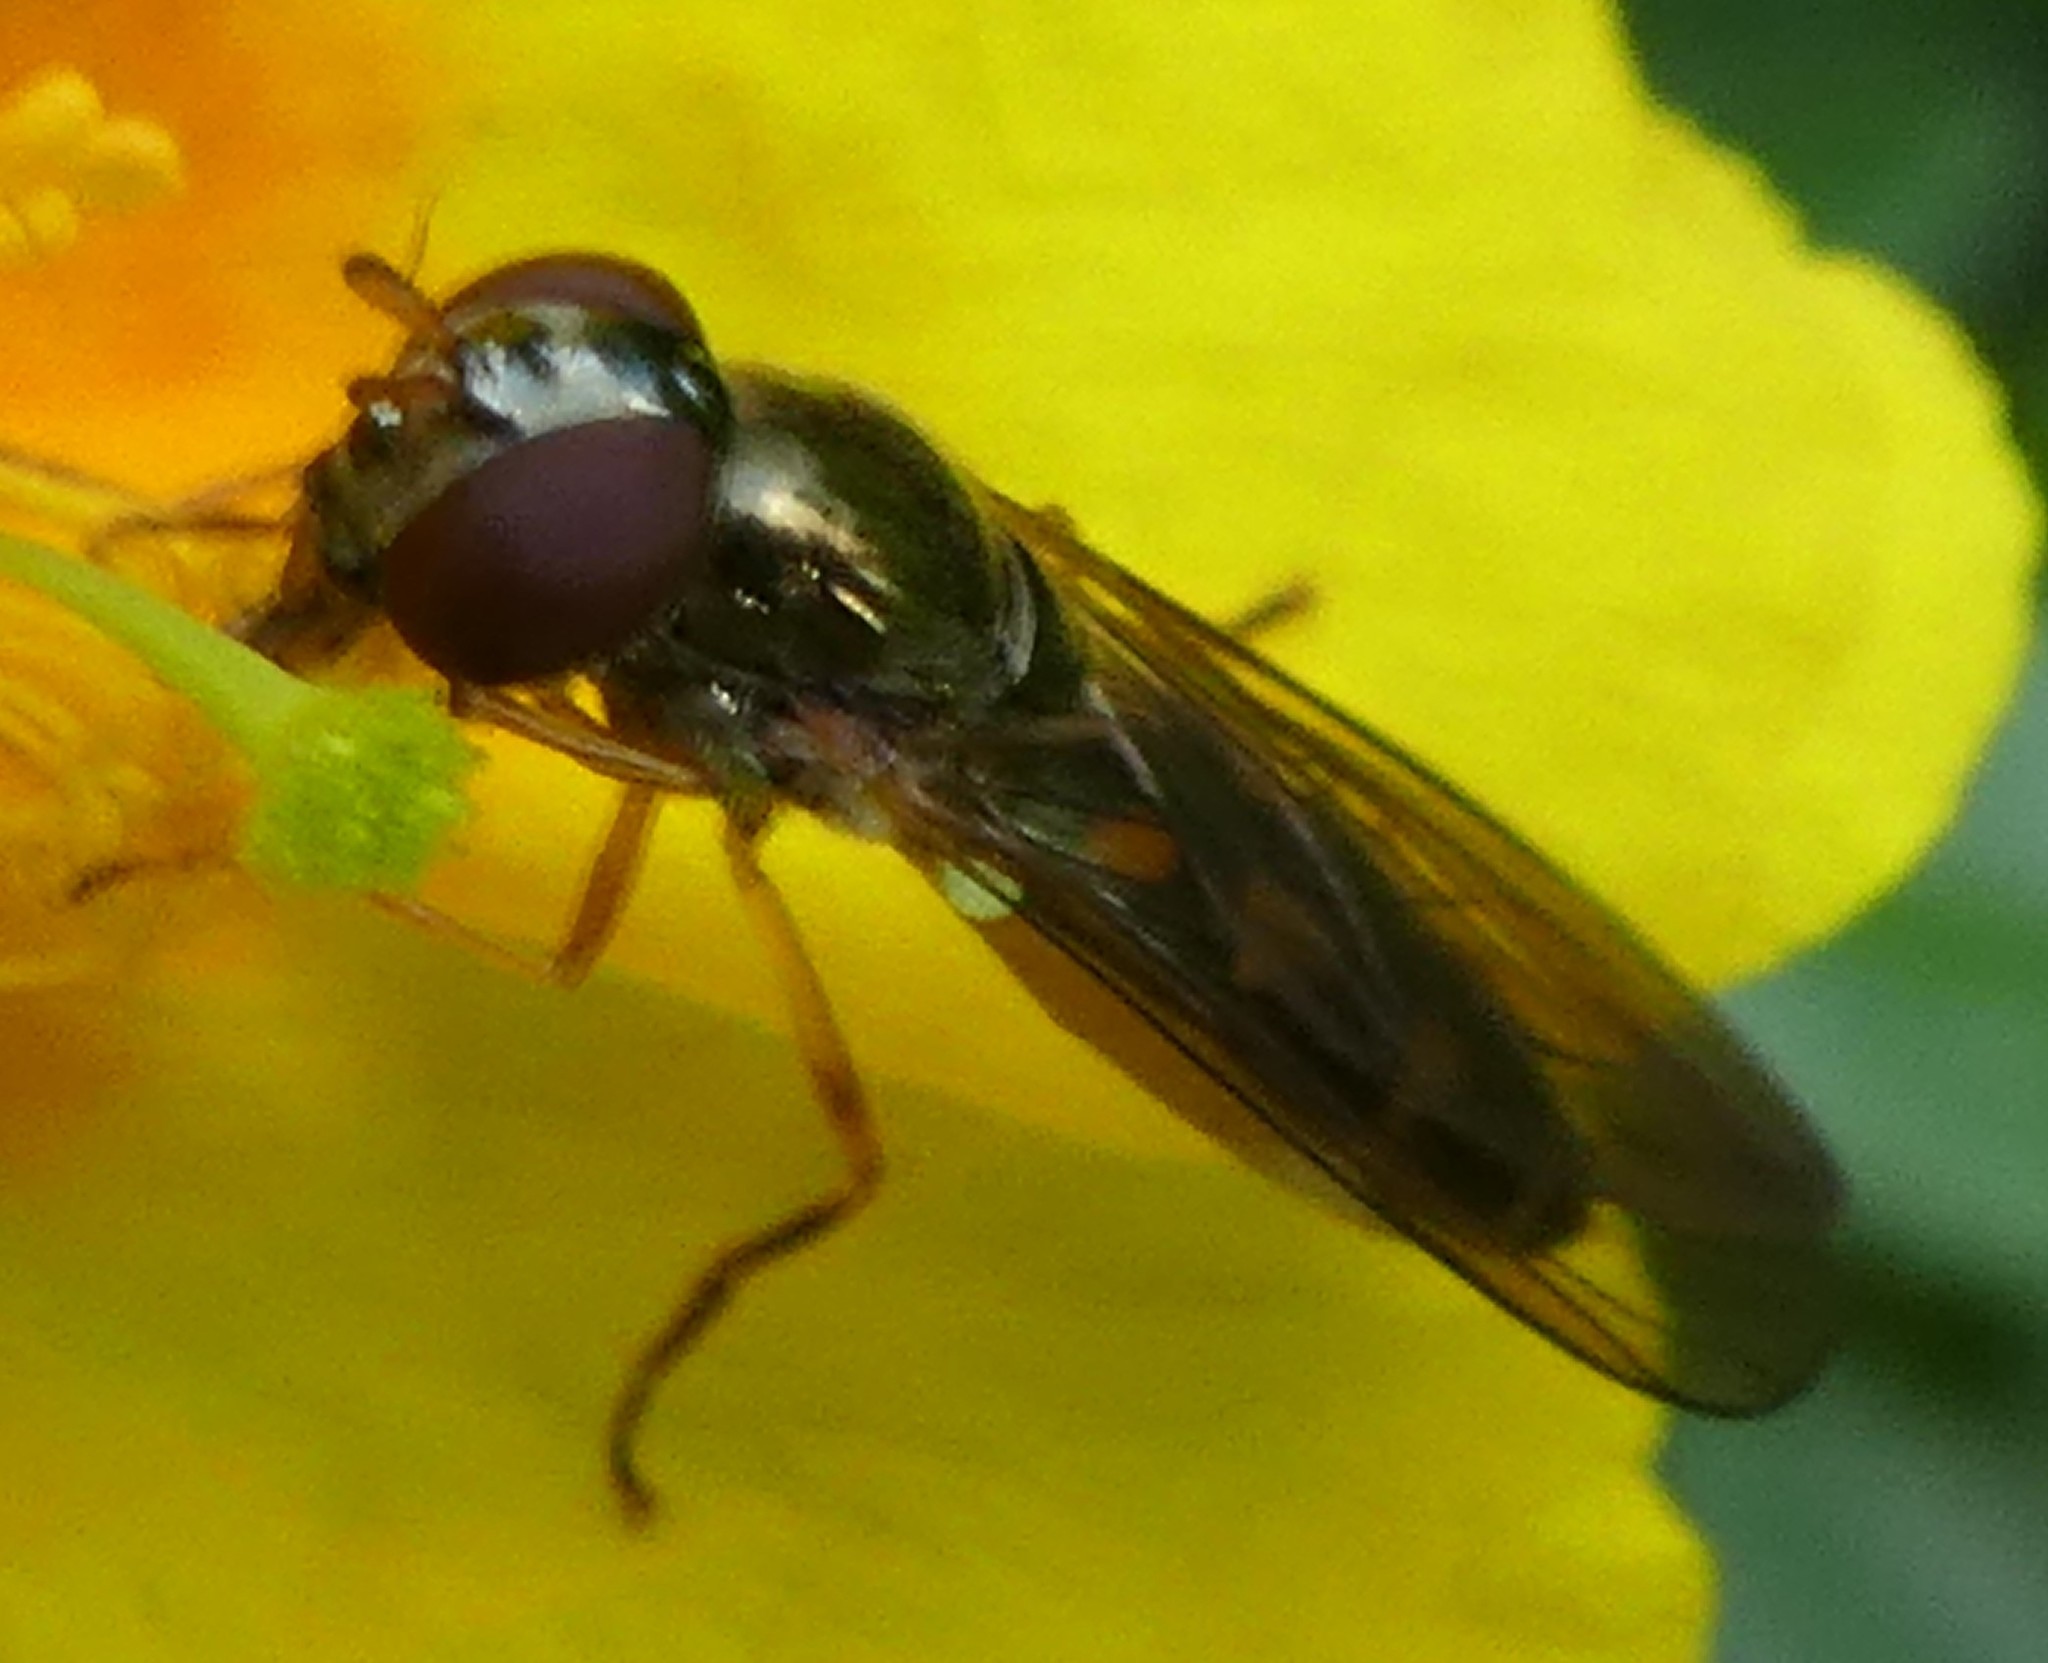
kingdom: Animalia
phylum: Arthropoda
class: Insecta
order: Diptera
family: Syrphidae
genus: Melanostoma
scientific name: Melanostoma scalare
